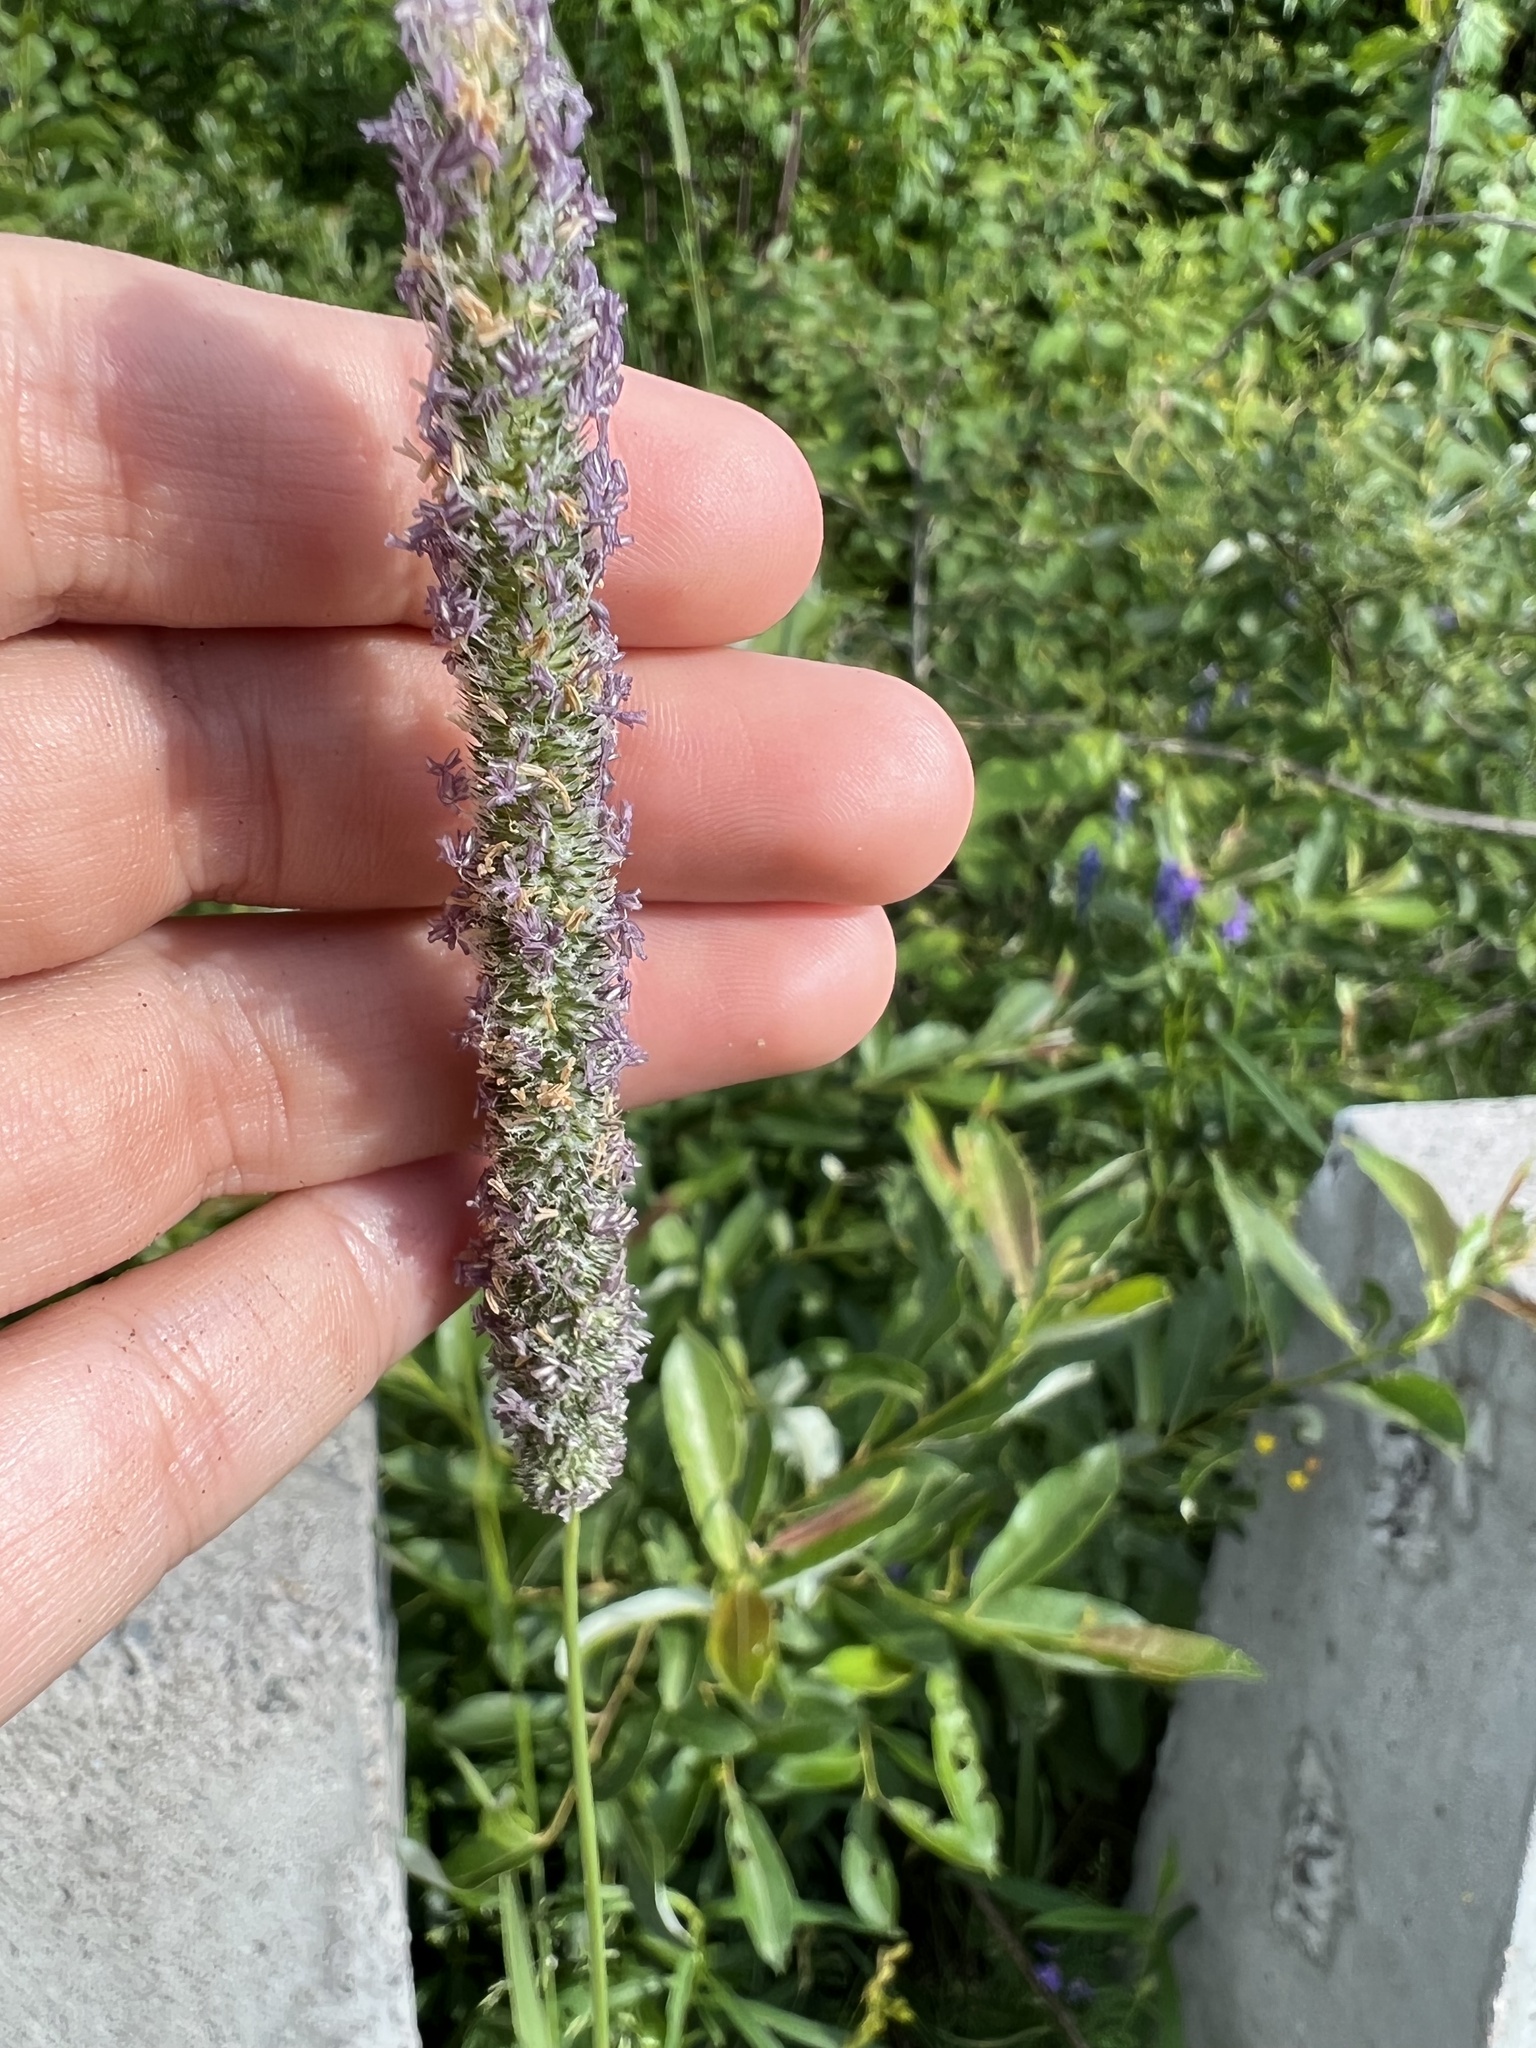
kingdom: Plantae
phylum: Tracheophyta
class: Liliopsida
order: Poales
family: Poaceae
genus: Phleum
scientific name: Phleum pratense
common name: Timothy grass
